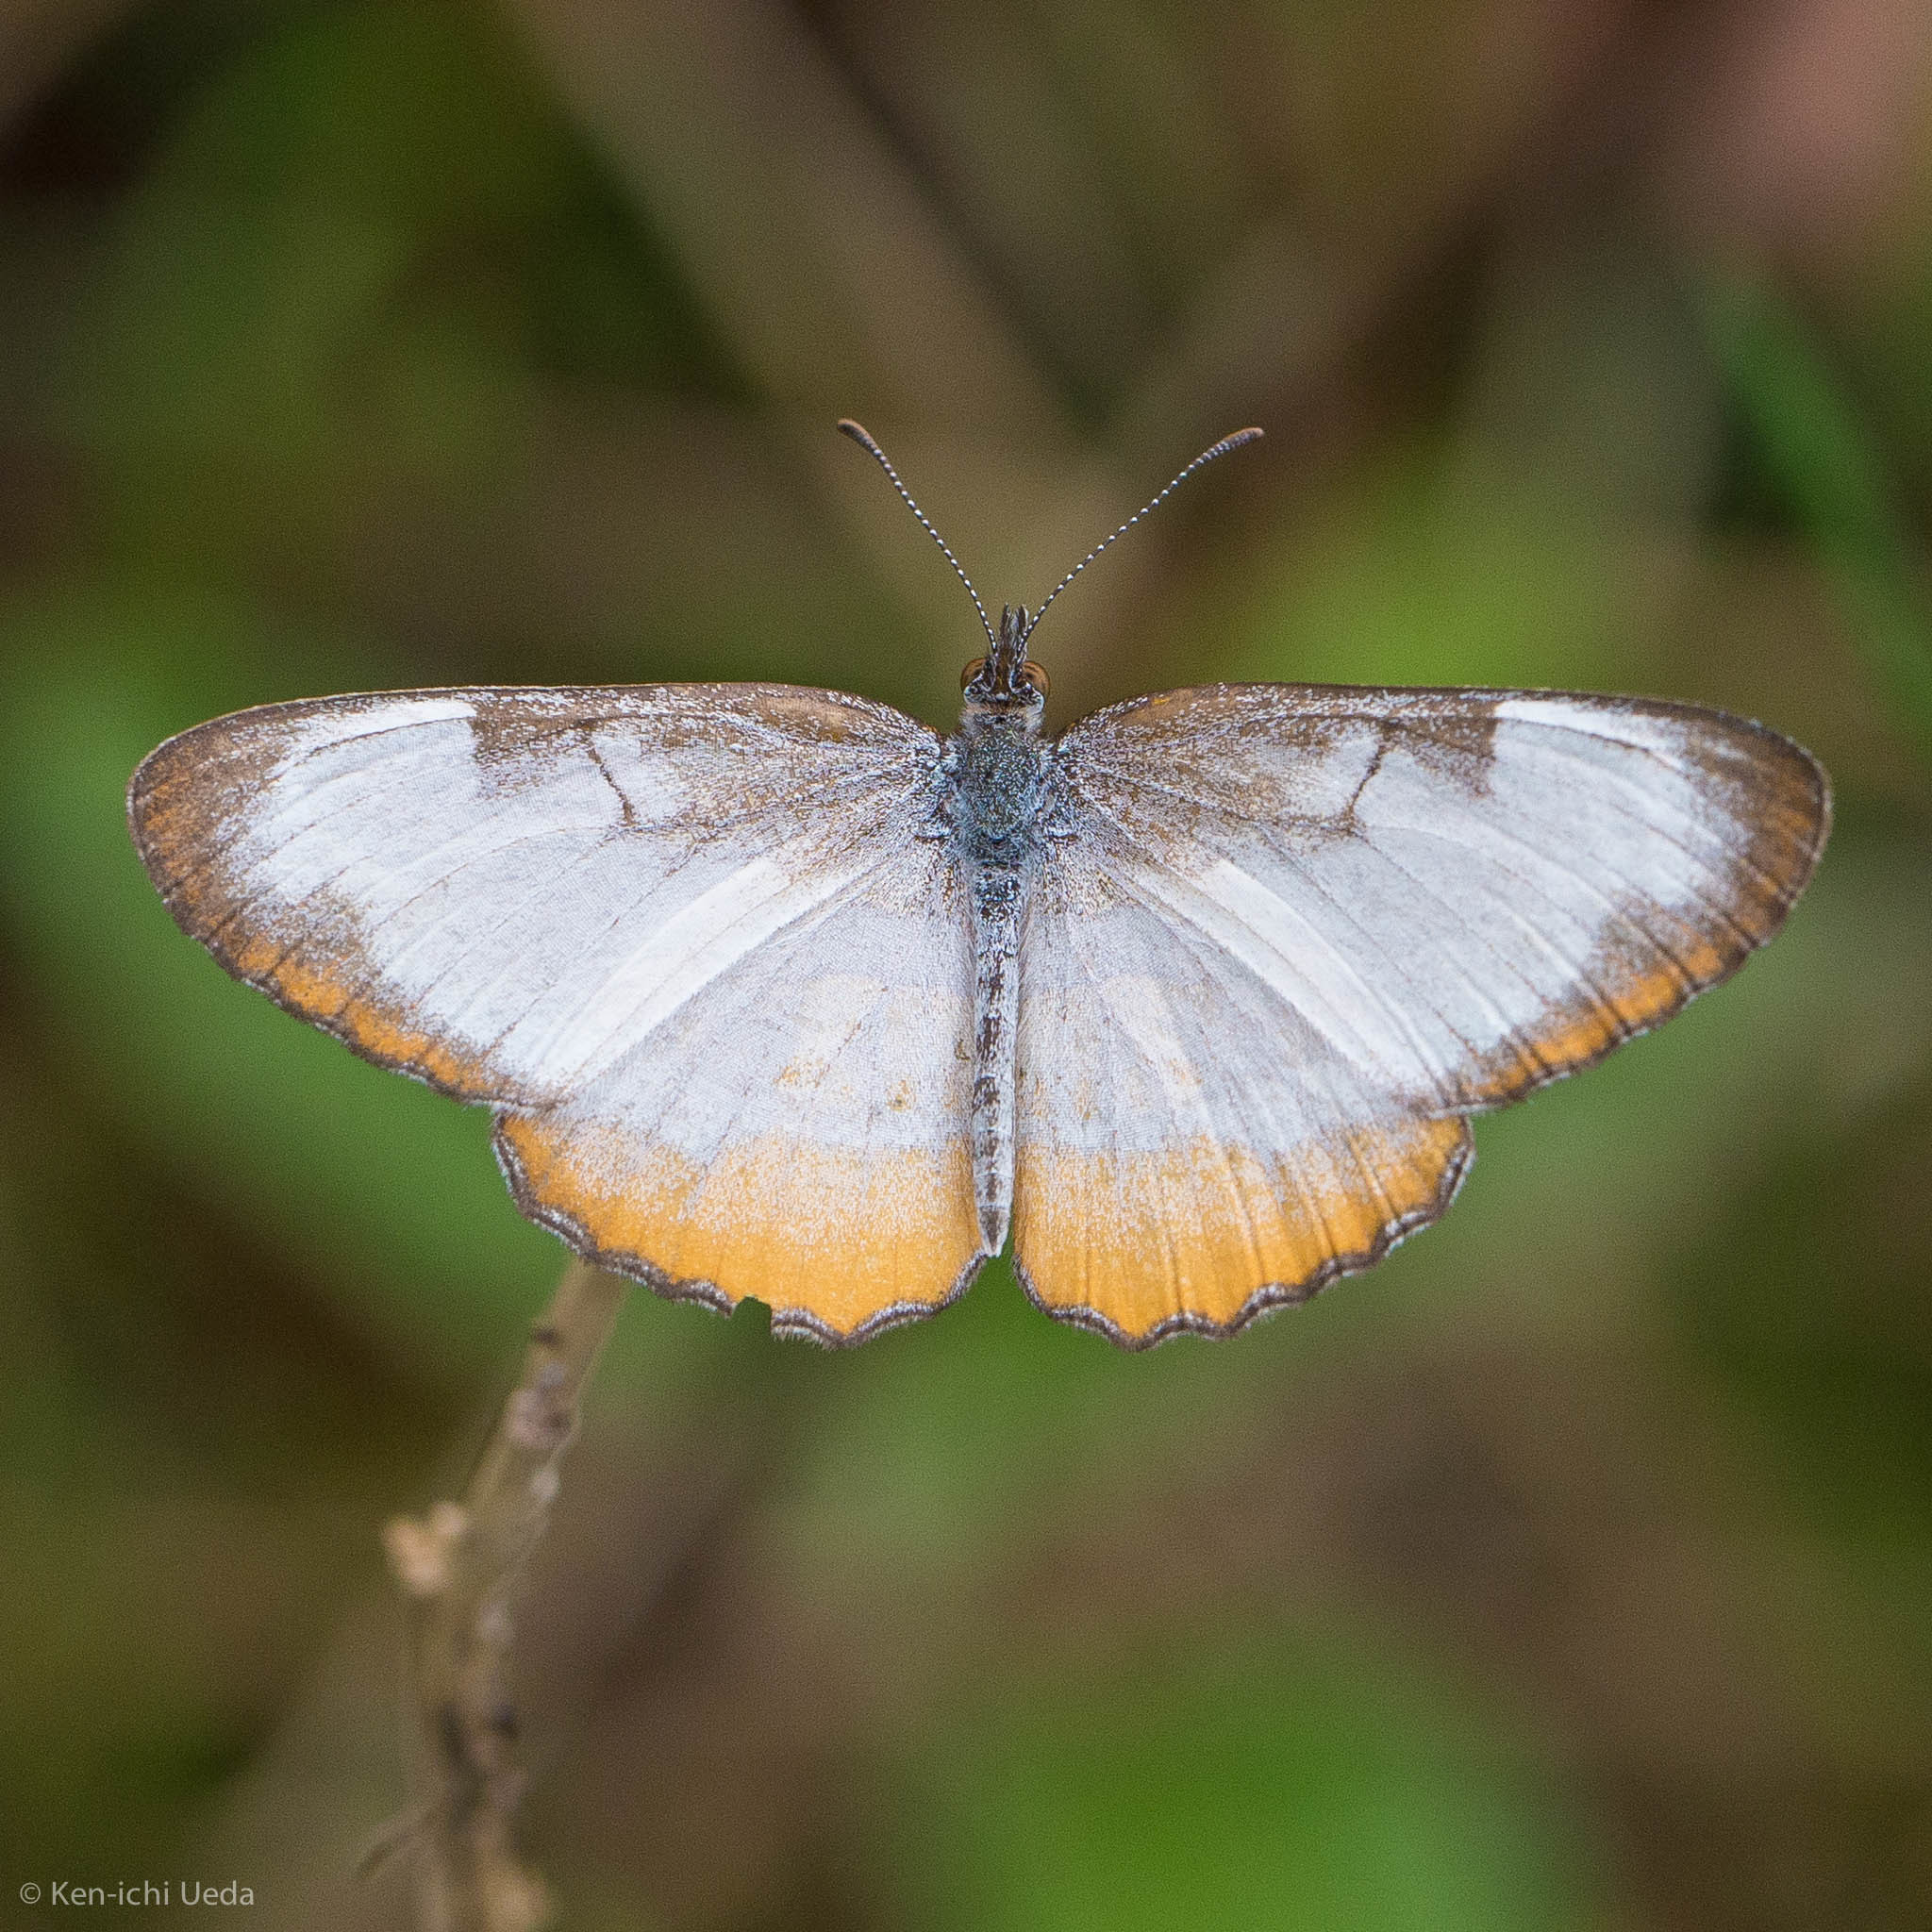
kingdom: Animalia
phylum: Arthropoda
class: Insecta
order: Lepidoptera
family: Nymphalidae
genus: Mestra
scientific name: Mestra amymone
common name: Common mestra
